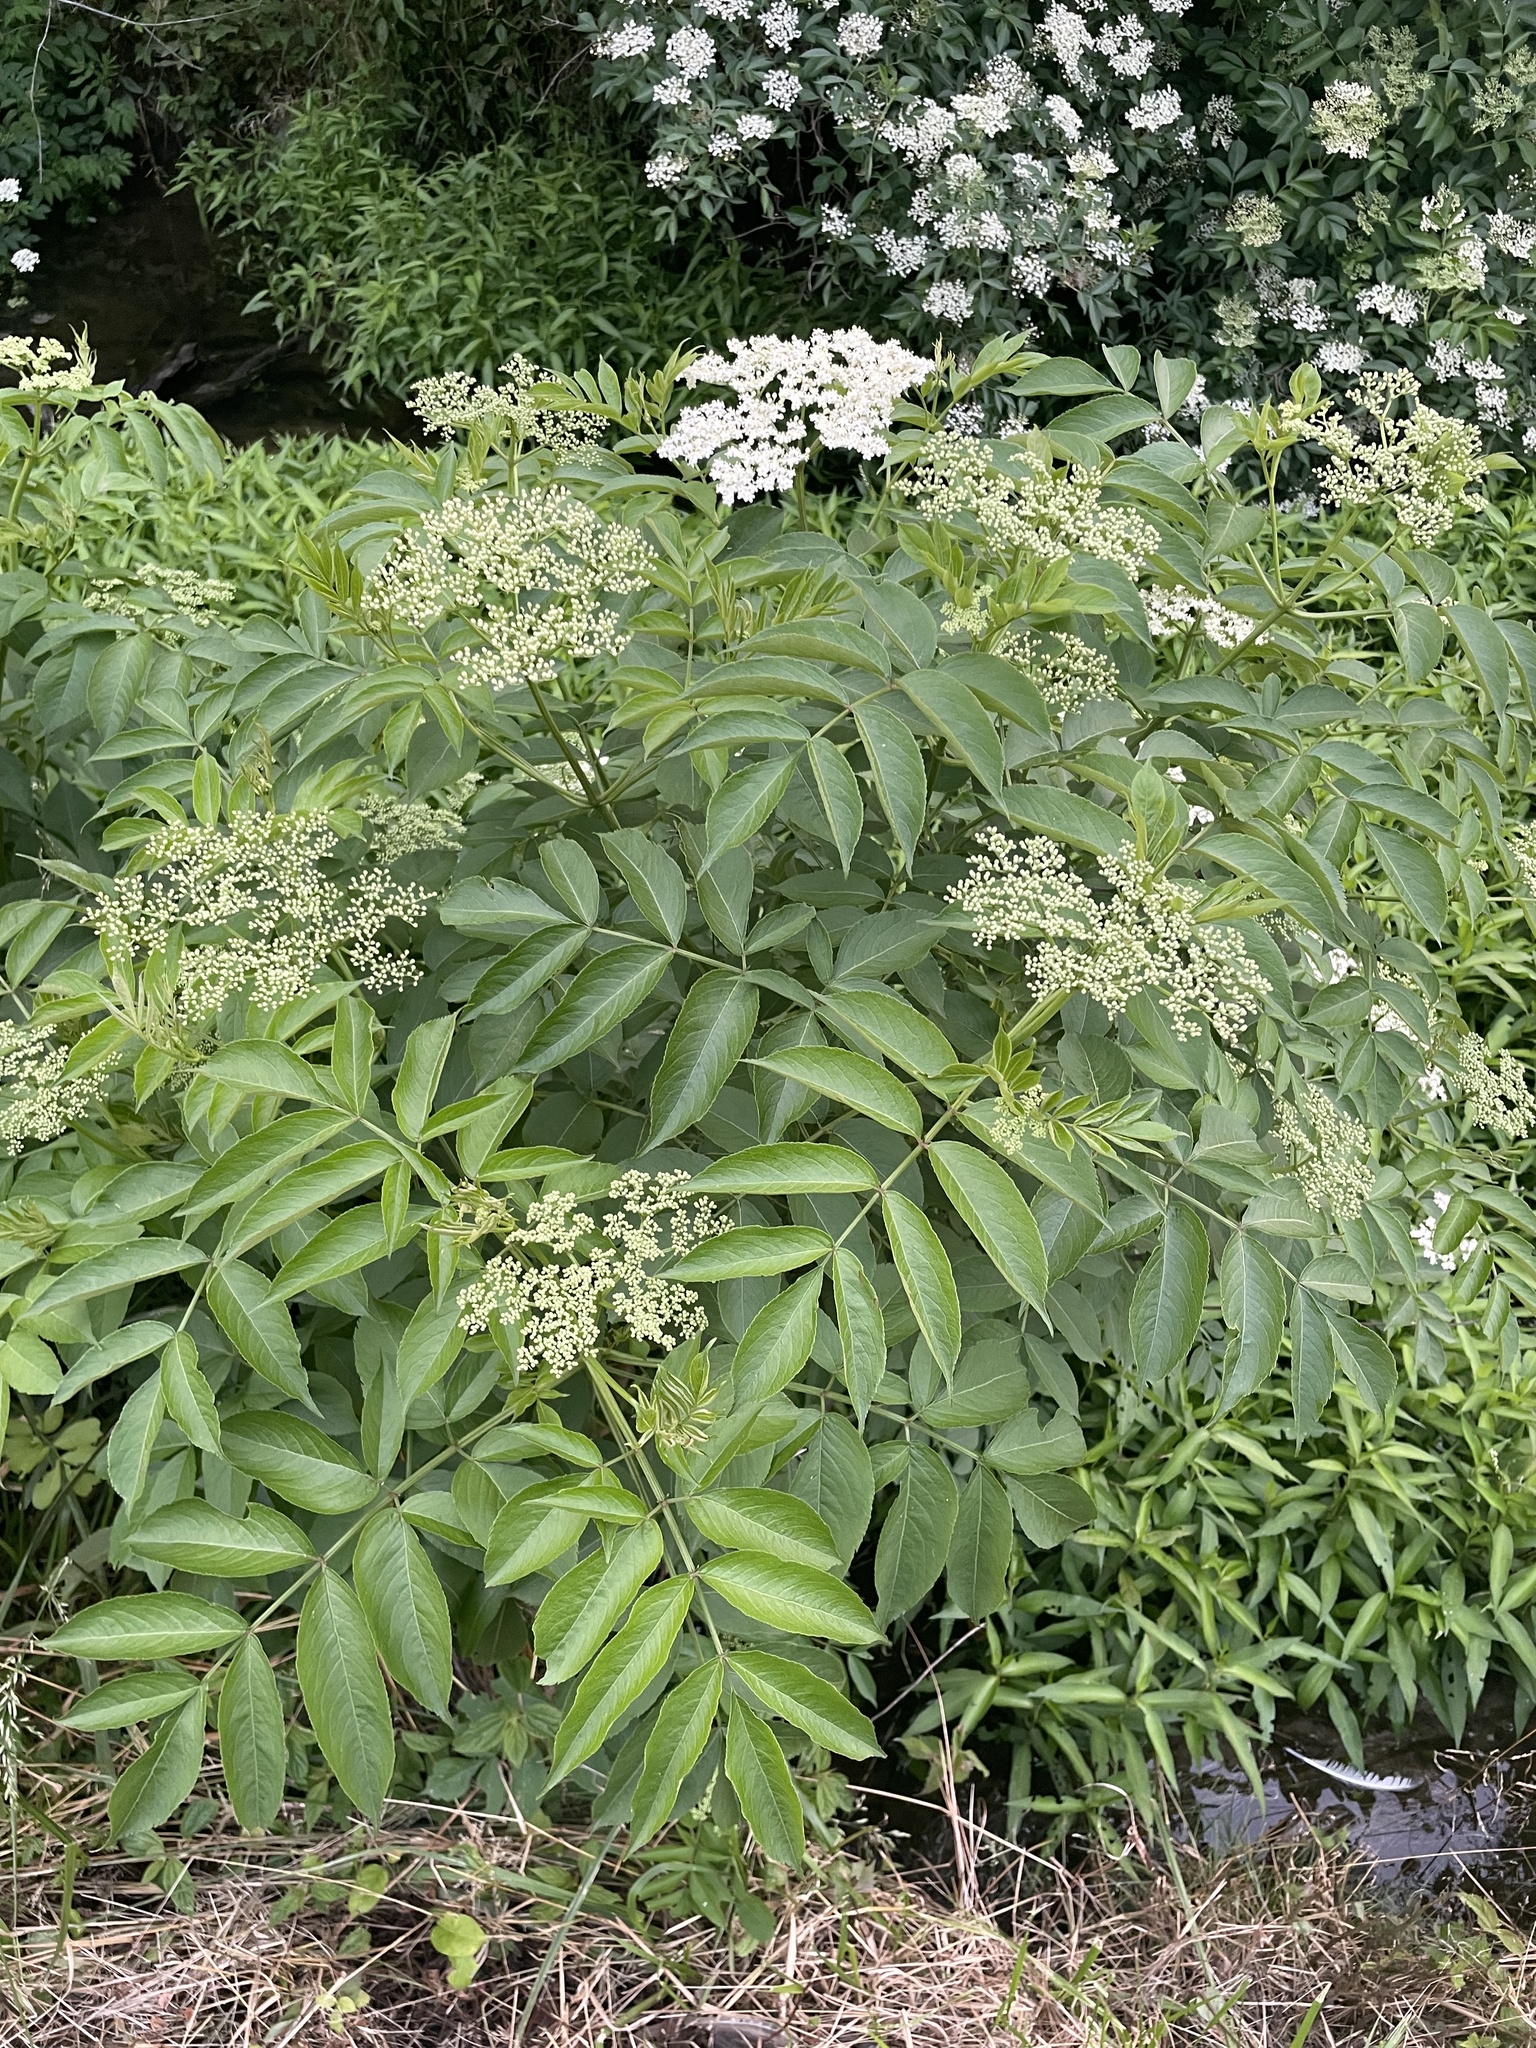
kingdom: Plantae
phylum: Tracheophyta
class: Magnoliopsida
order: Dipsacales
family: Viburnaceae
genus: Sambucus
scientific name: Sambucus canadensis
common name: American elder
